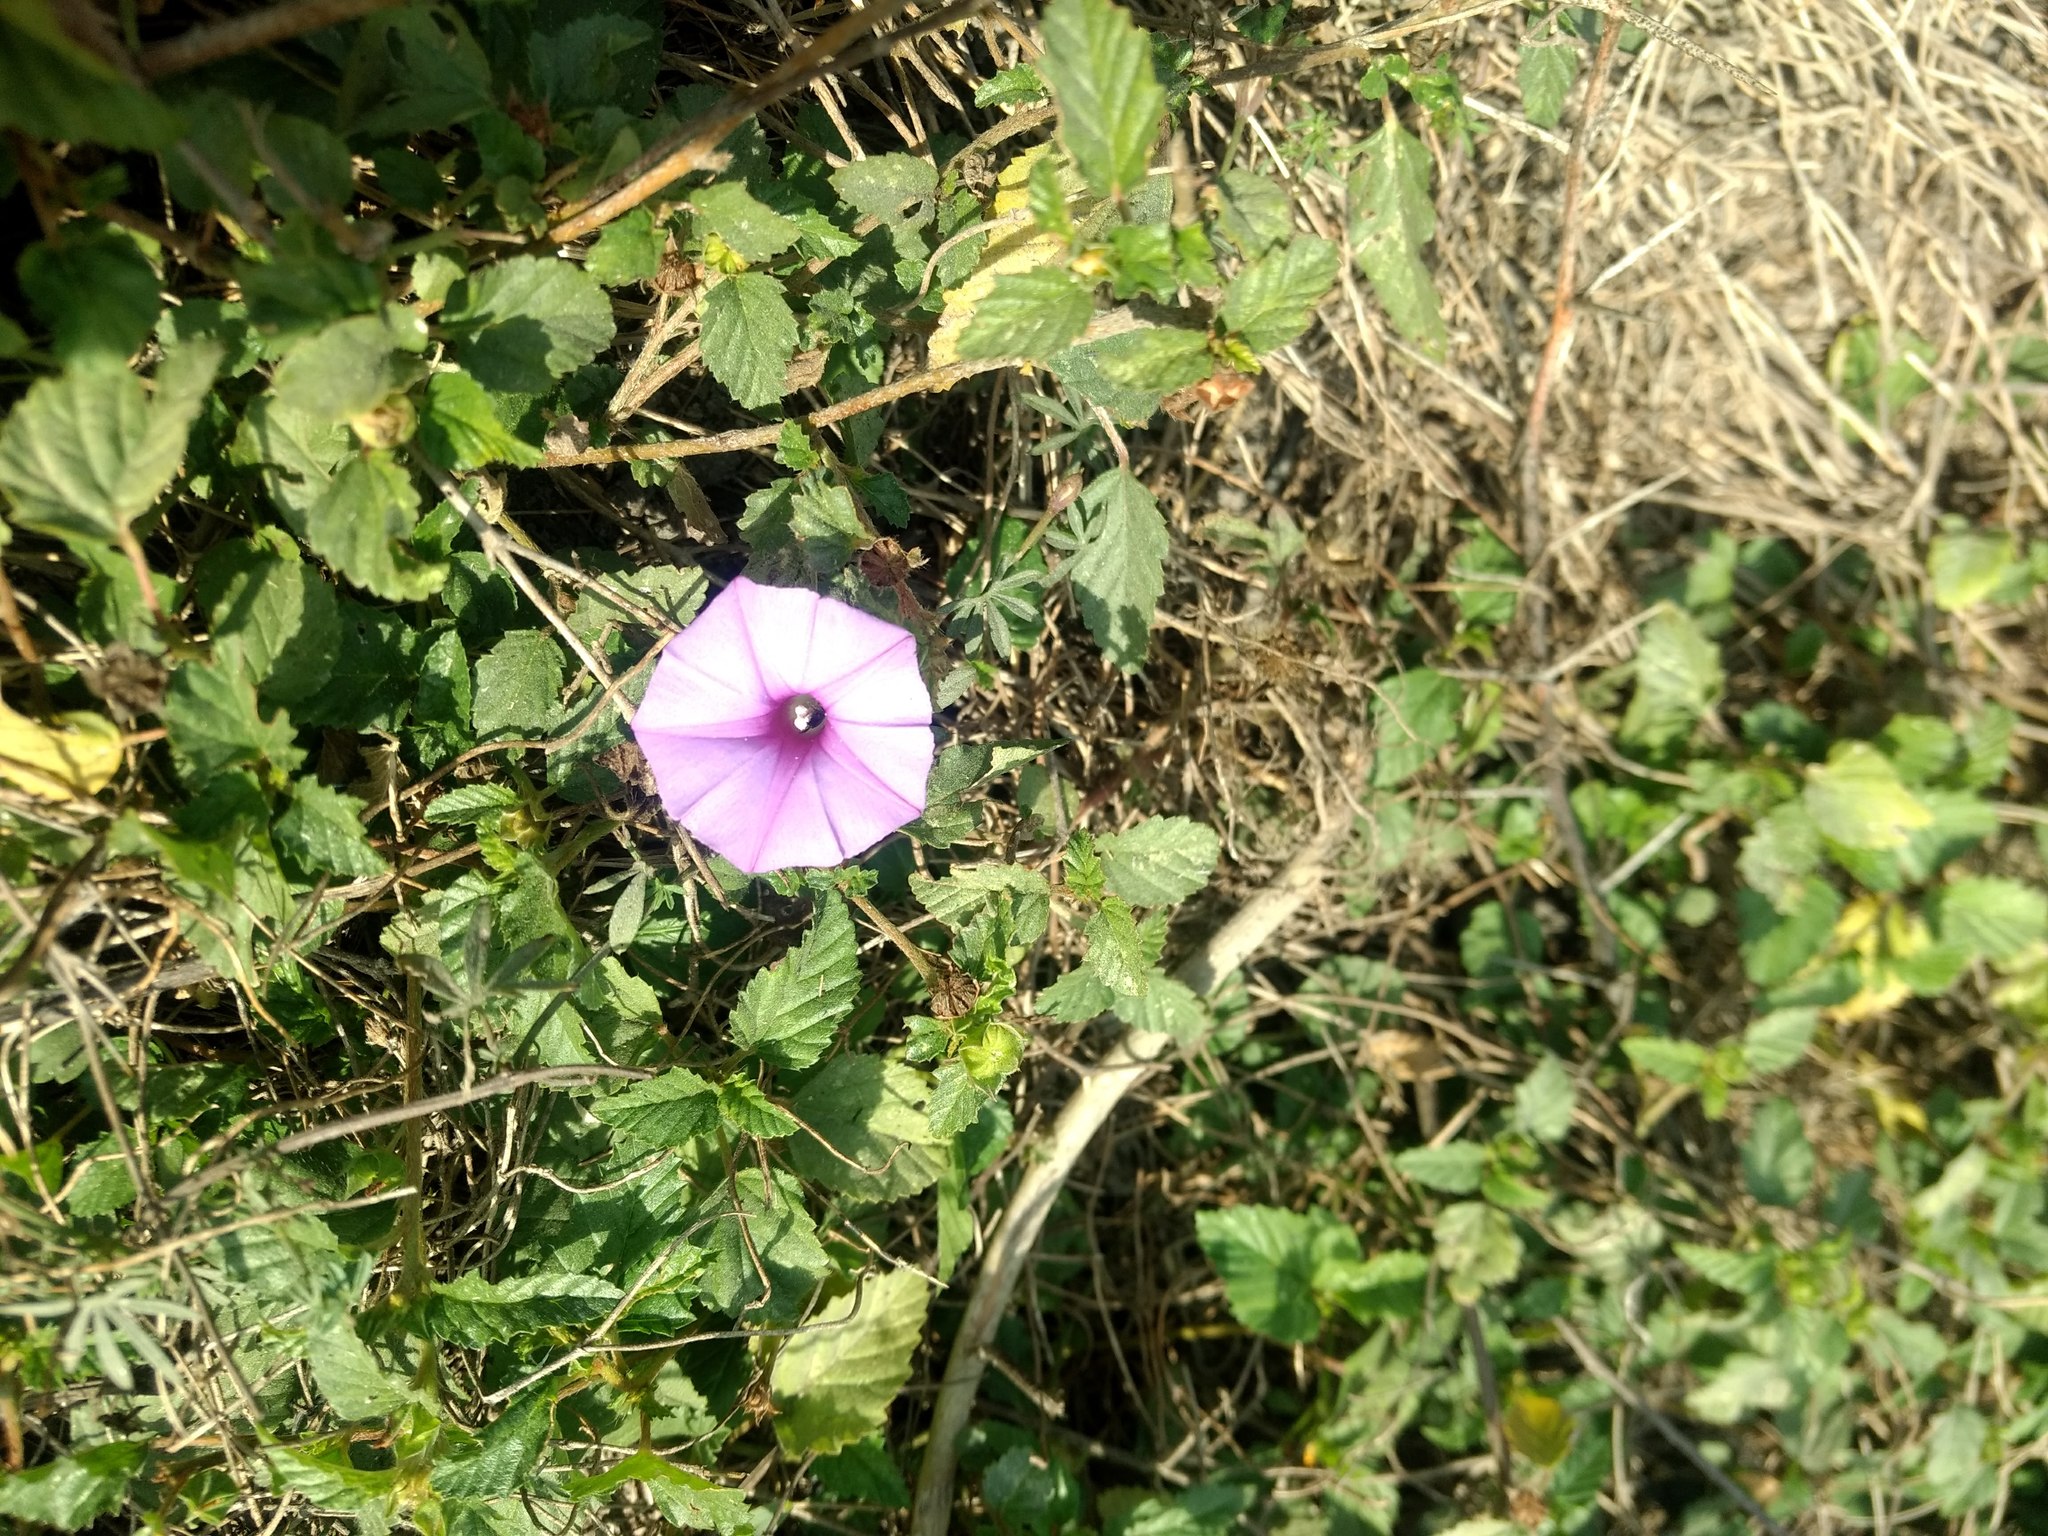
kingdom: Plantae
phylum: Tracheophyta
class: Magnoliopsida
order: Solanales
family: Convolvulaceae
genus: Ipomoea
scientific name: Ipomoea ternifolia
